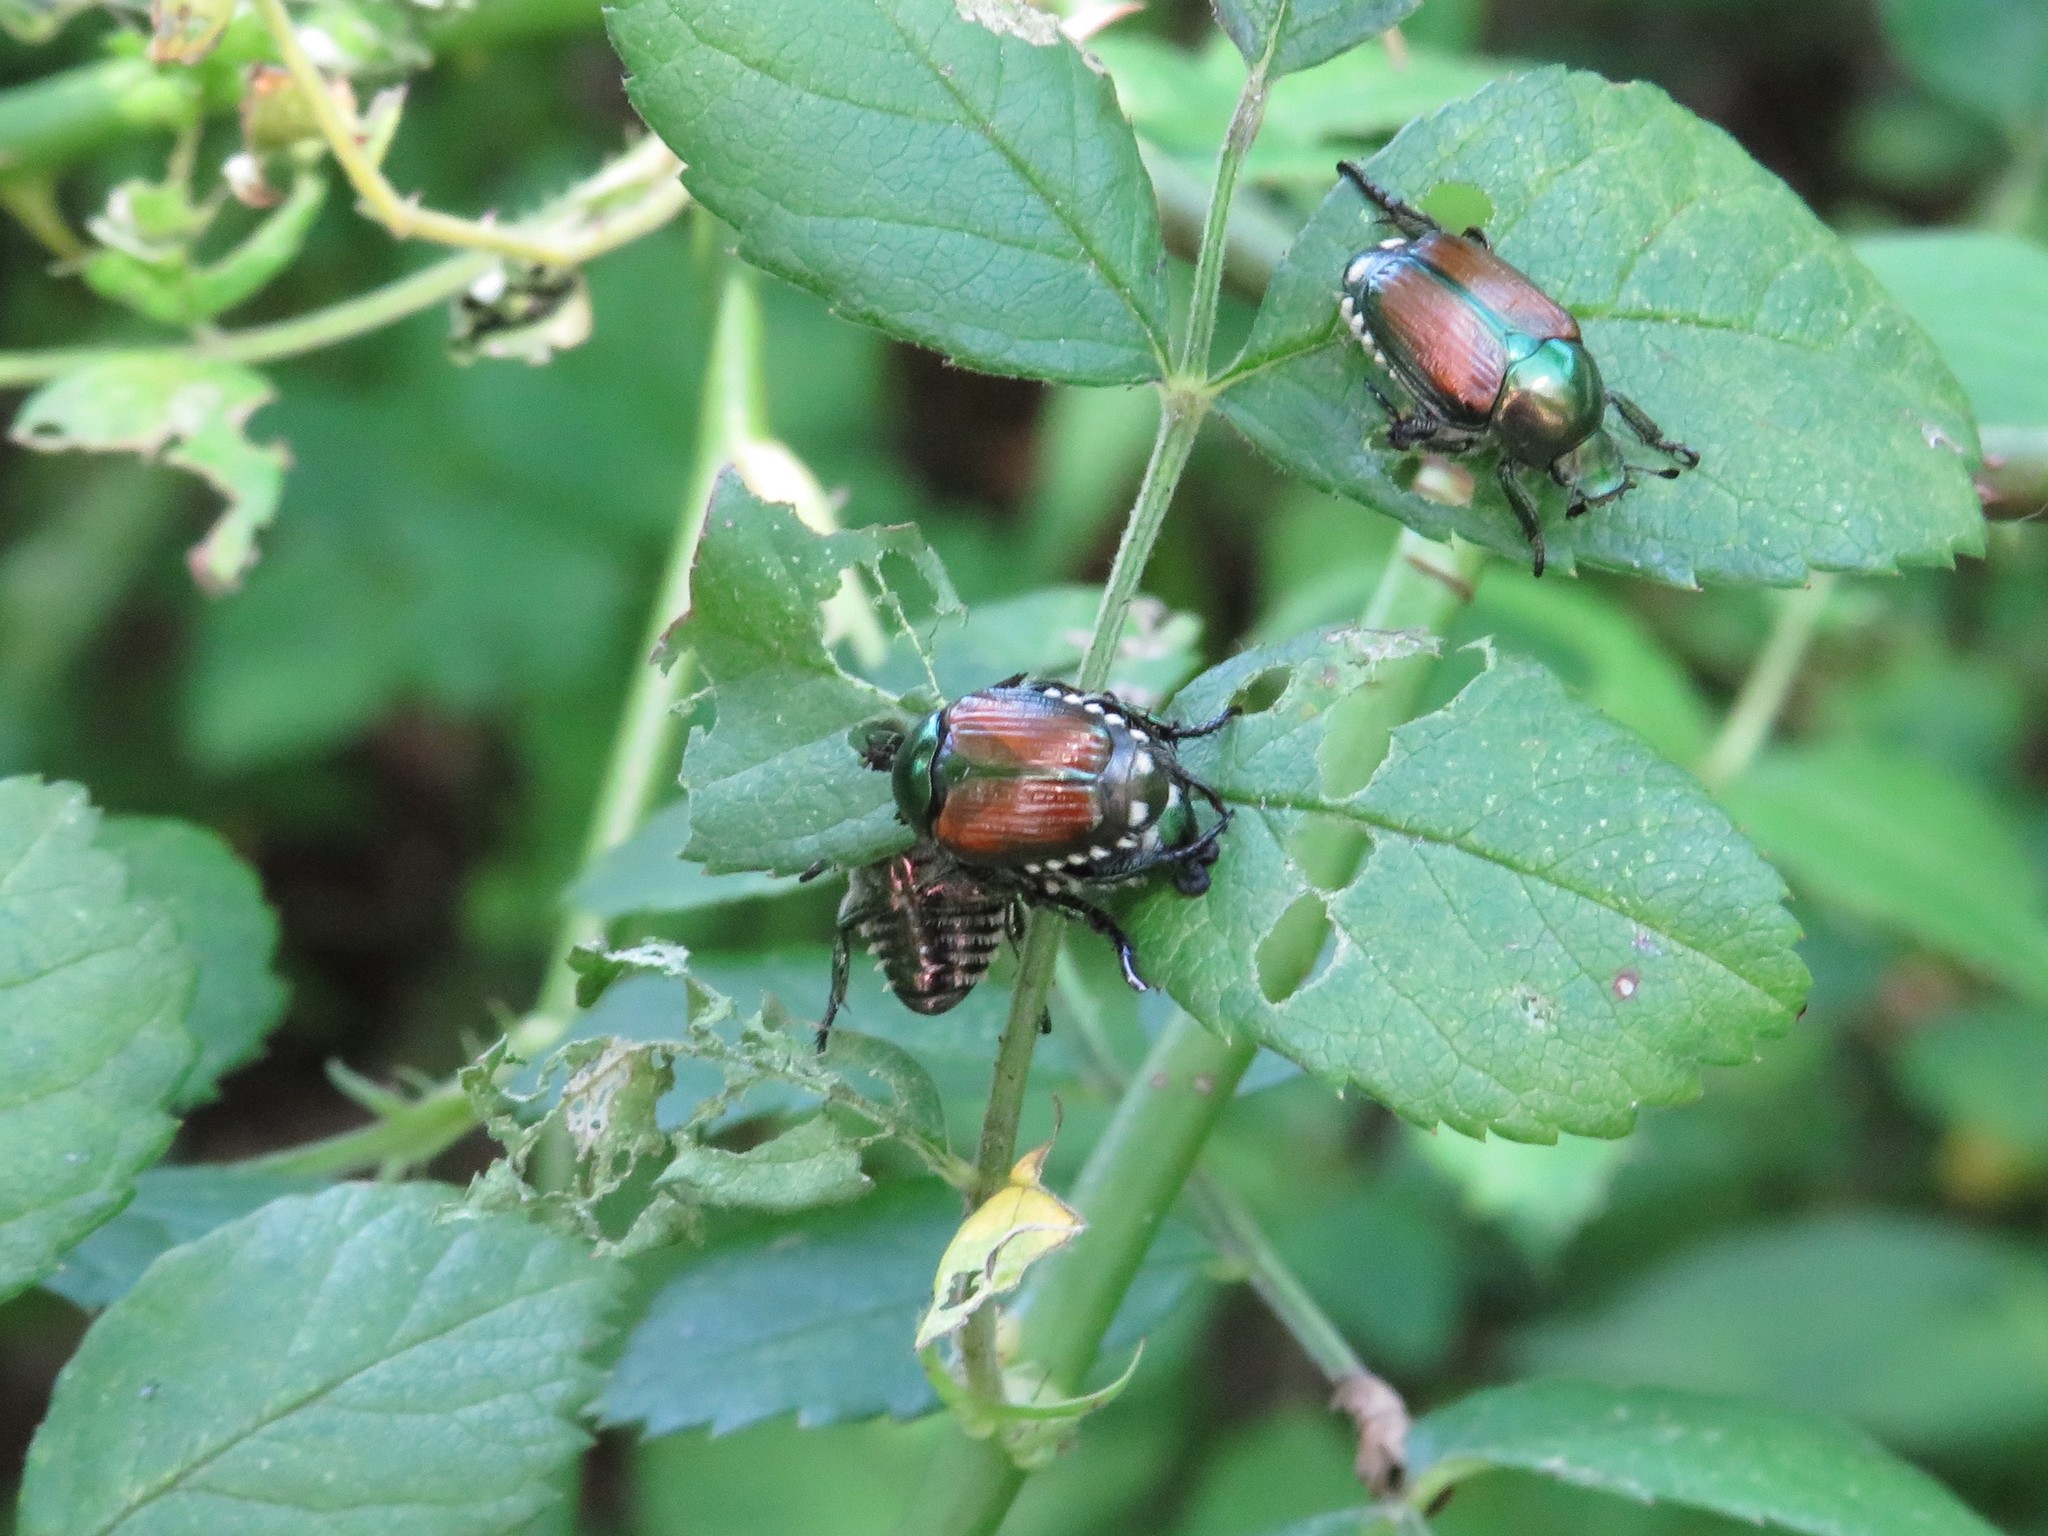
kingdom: Animalia
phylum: Arthropoda
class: Insecta
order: Coleoptera
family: Scarabaeidae
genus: Popillia
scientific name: Popillia japonica
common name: Japanese beetle
